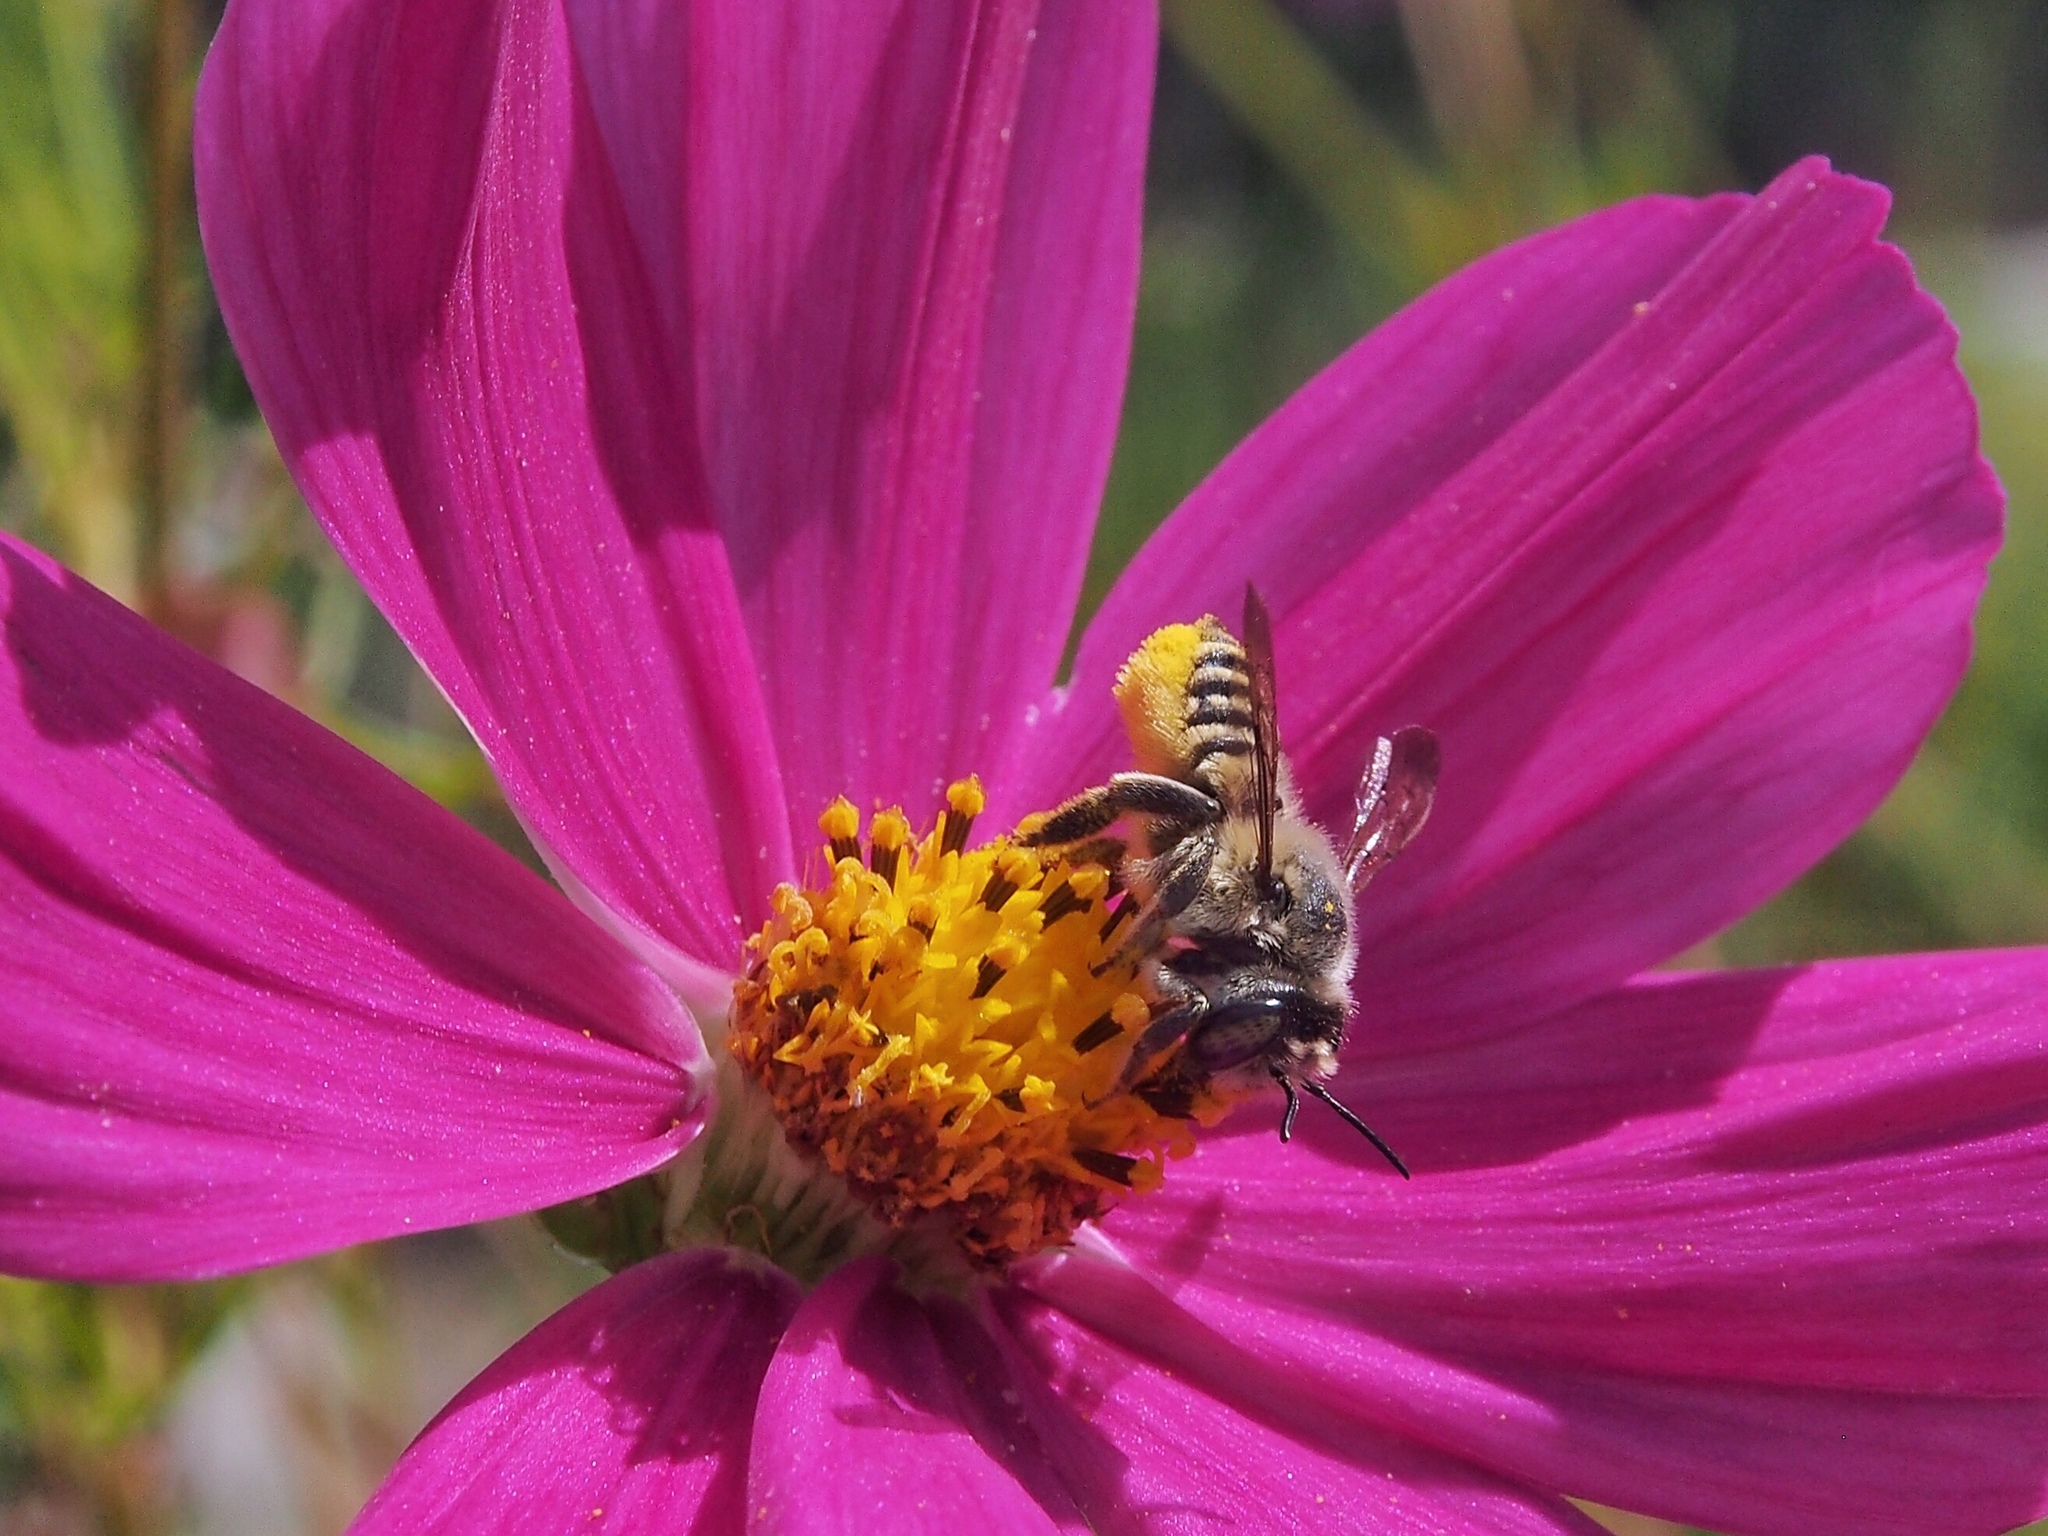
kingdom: Animalia
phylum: Arthropoda
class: Insecta
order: Hymenoptera
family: Megachilidae
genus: Megachile
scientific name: Megachile parallela
